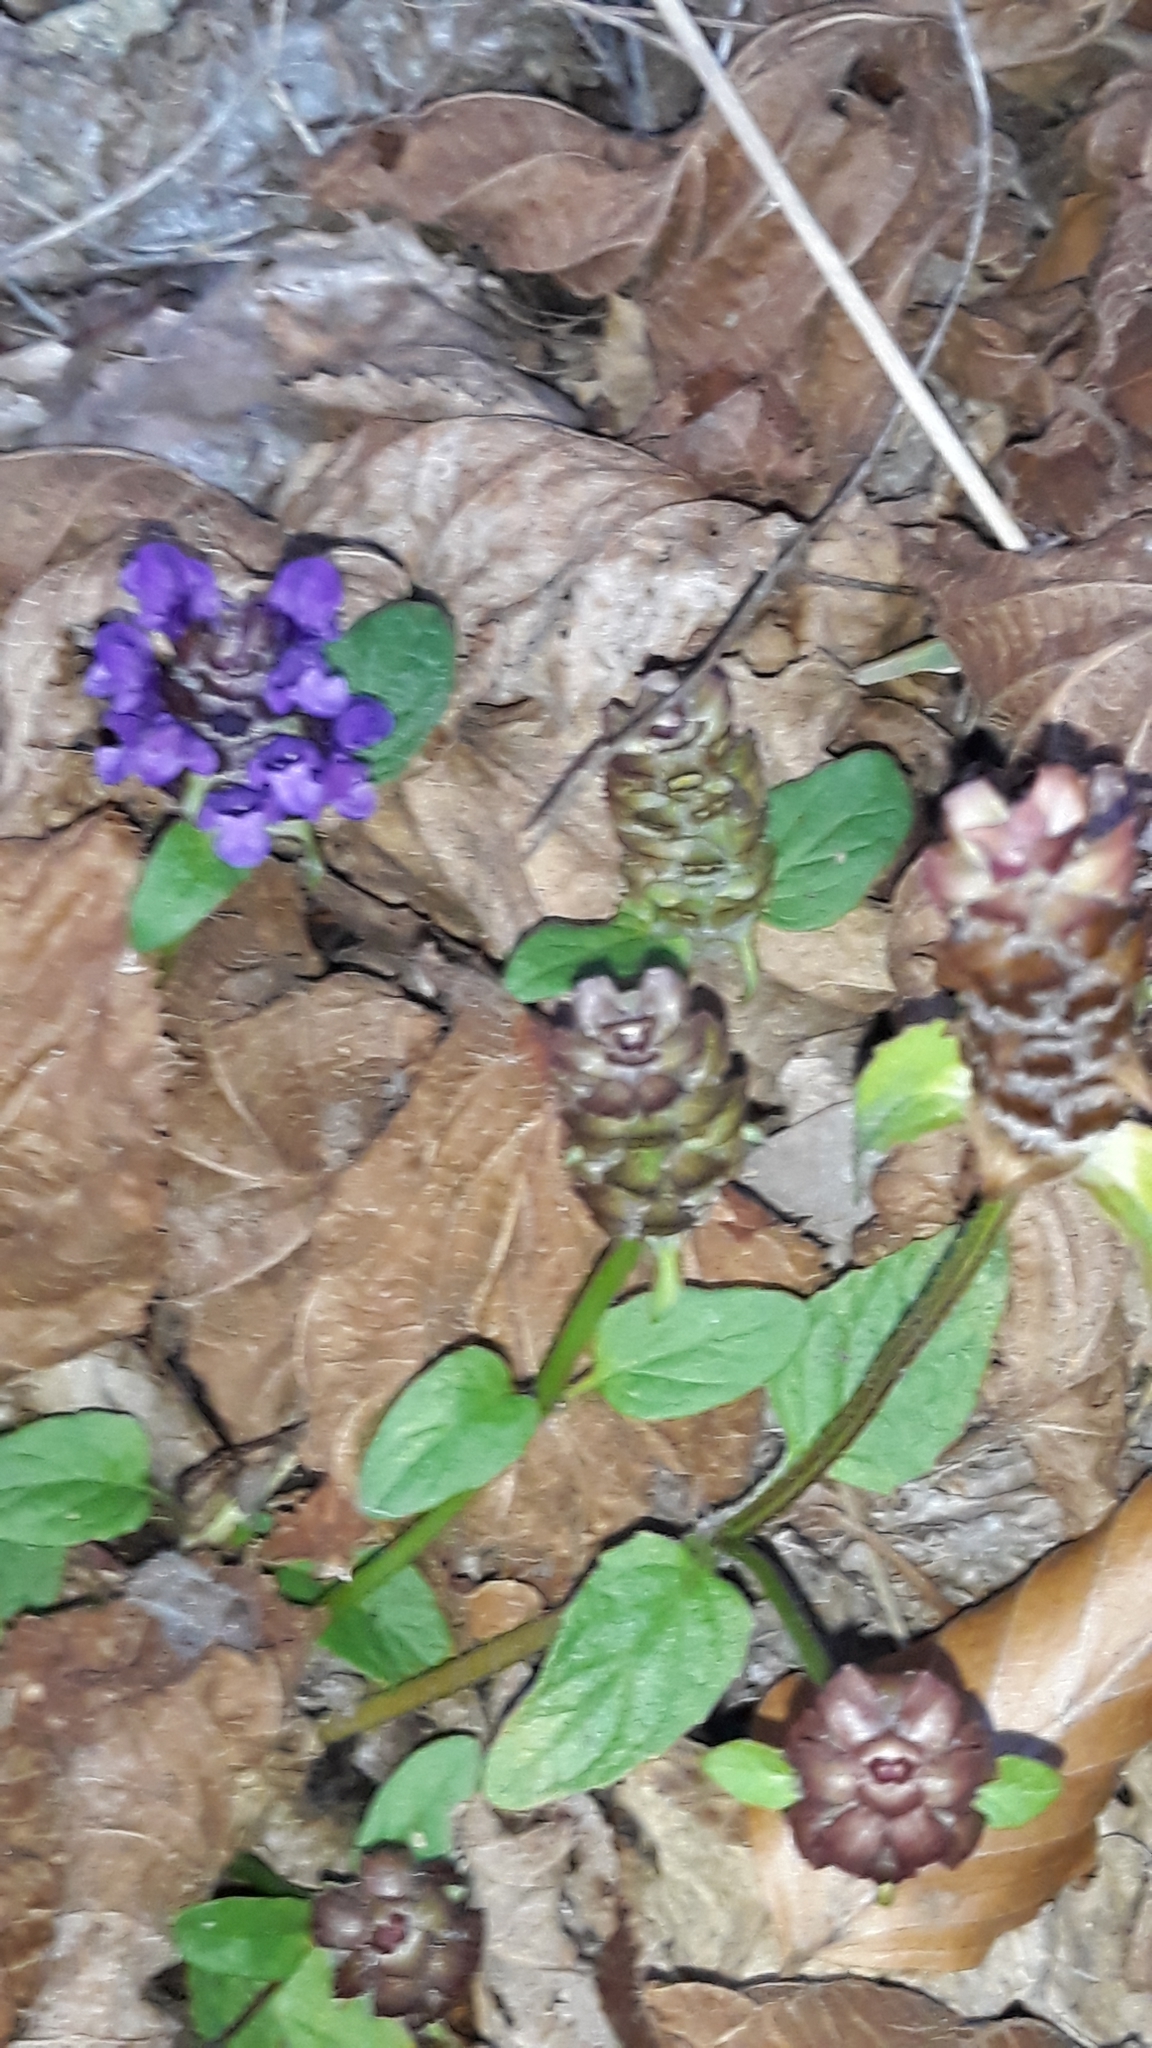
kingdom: Plantae
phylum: Tracheophyta
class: Magnoliopsida
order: Lamiales
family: Lamiaceae
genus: Prunella
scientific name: Prunella vulgaris
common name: Heal-all
